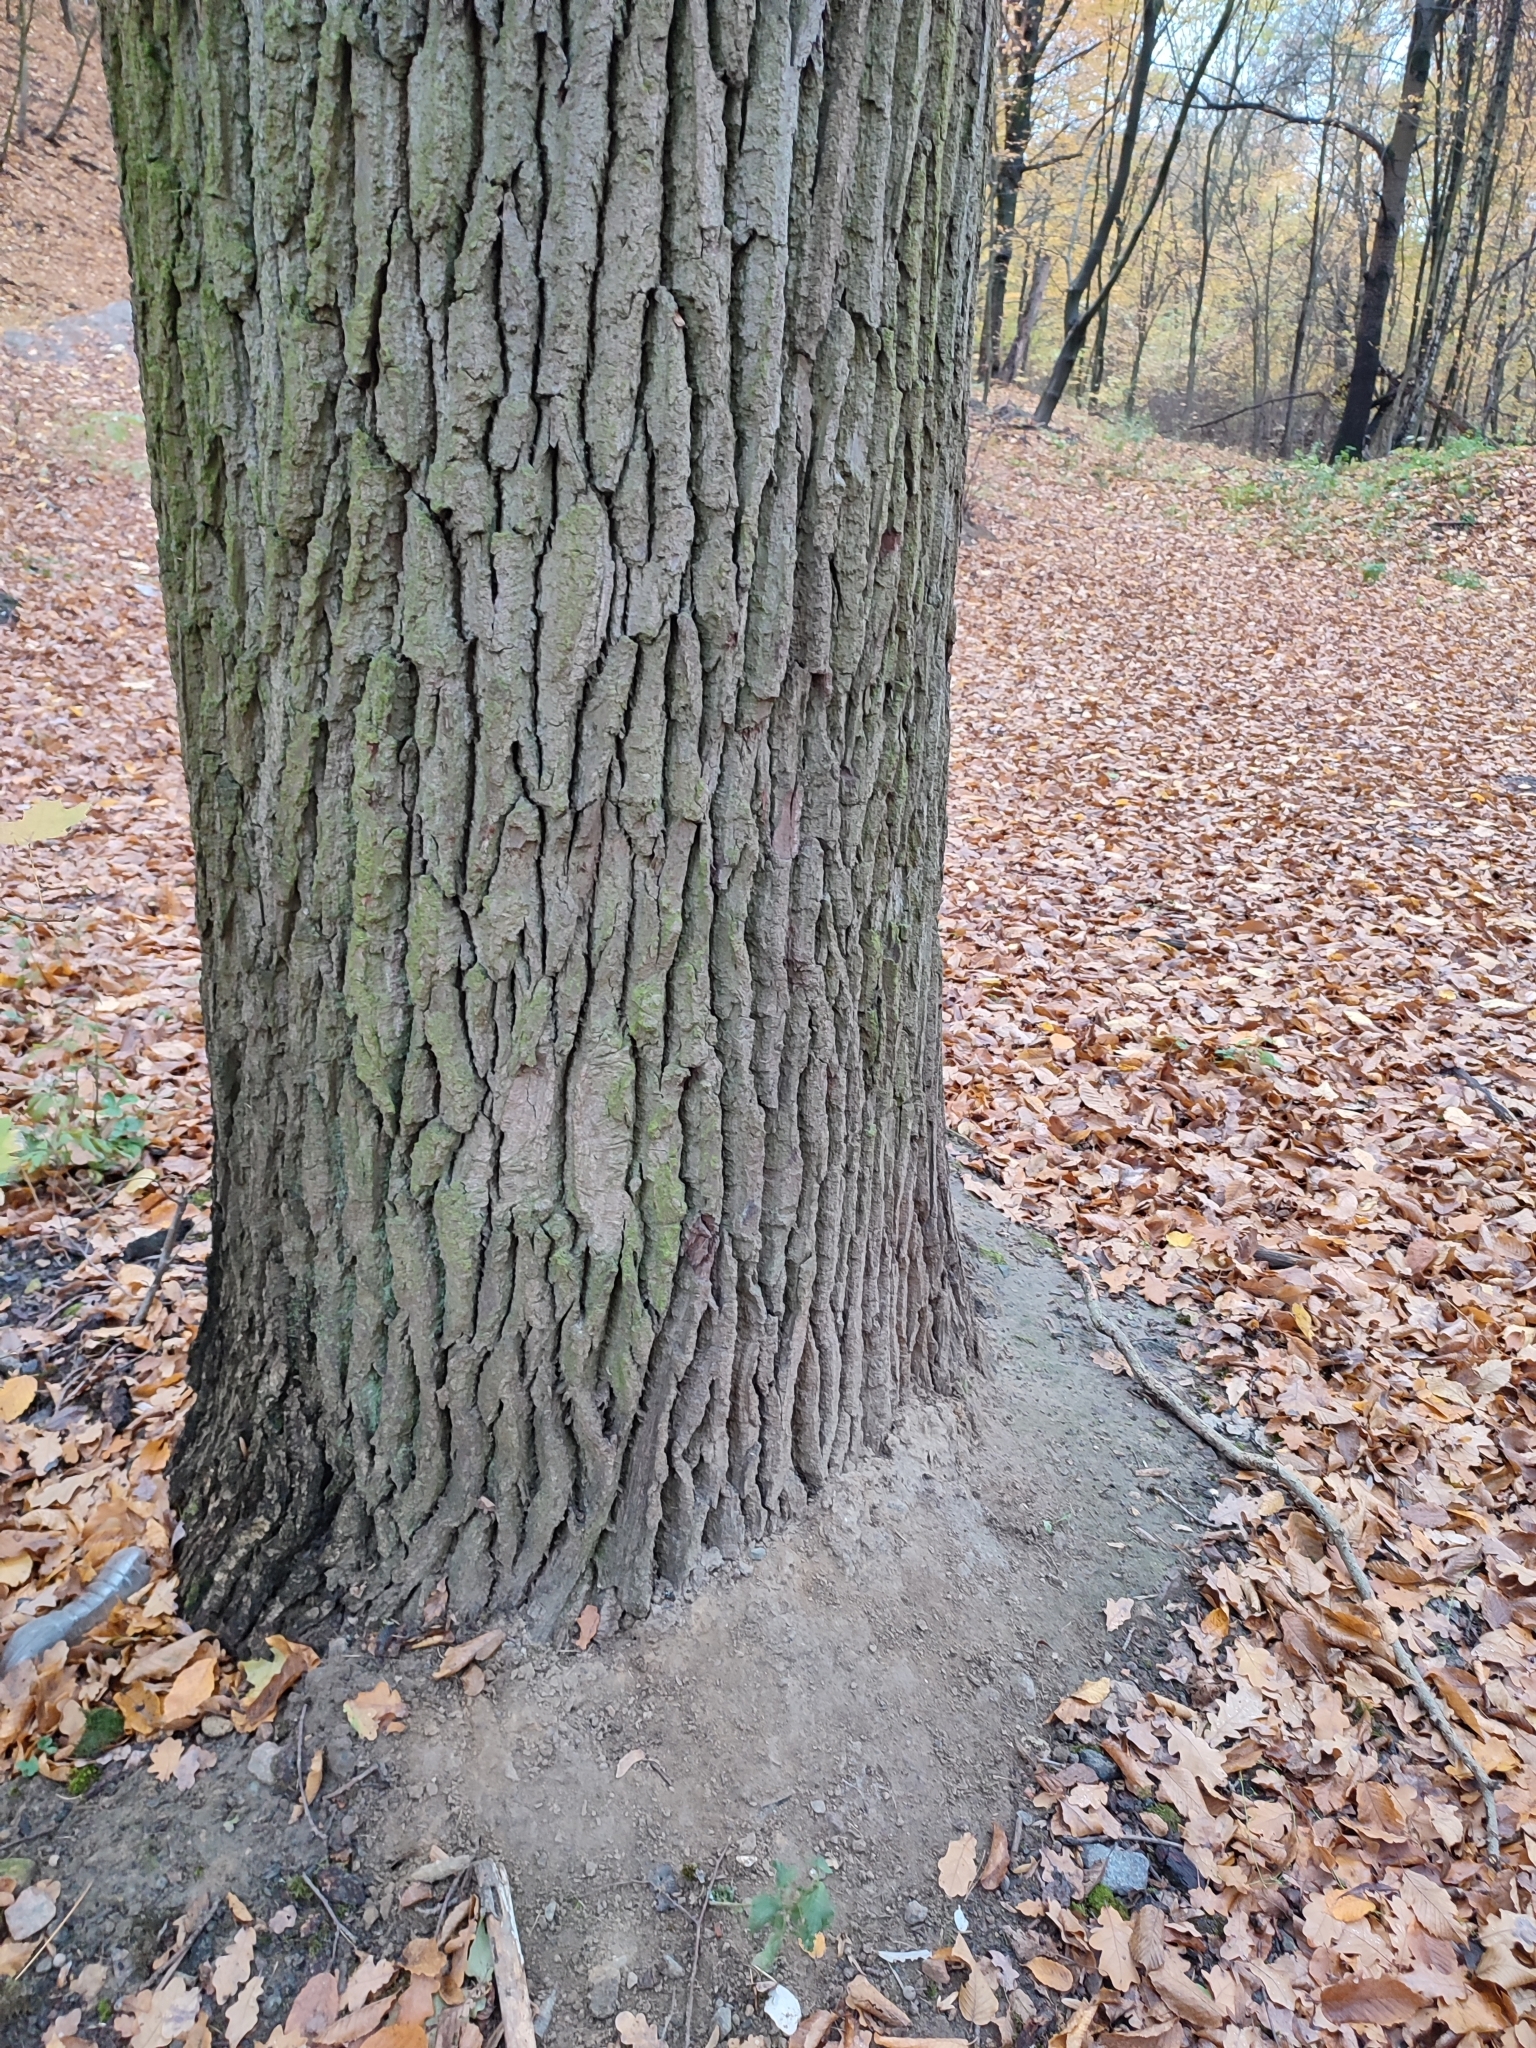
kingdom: Plantae
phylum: Tracheophyta
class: Magnoliopsida
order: Fagales
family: Fagaceae
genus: Quercus
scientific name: Quercus robur
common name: Pedunculate oak
